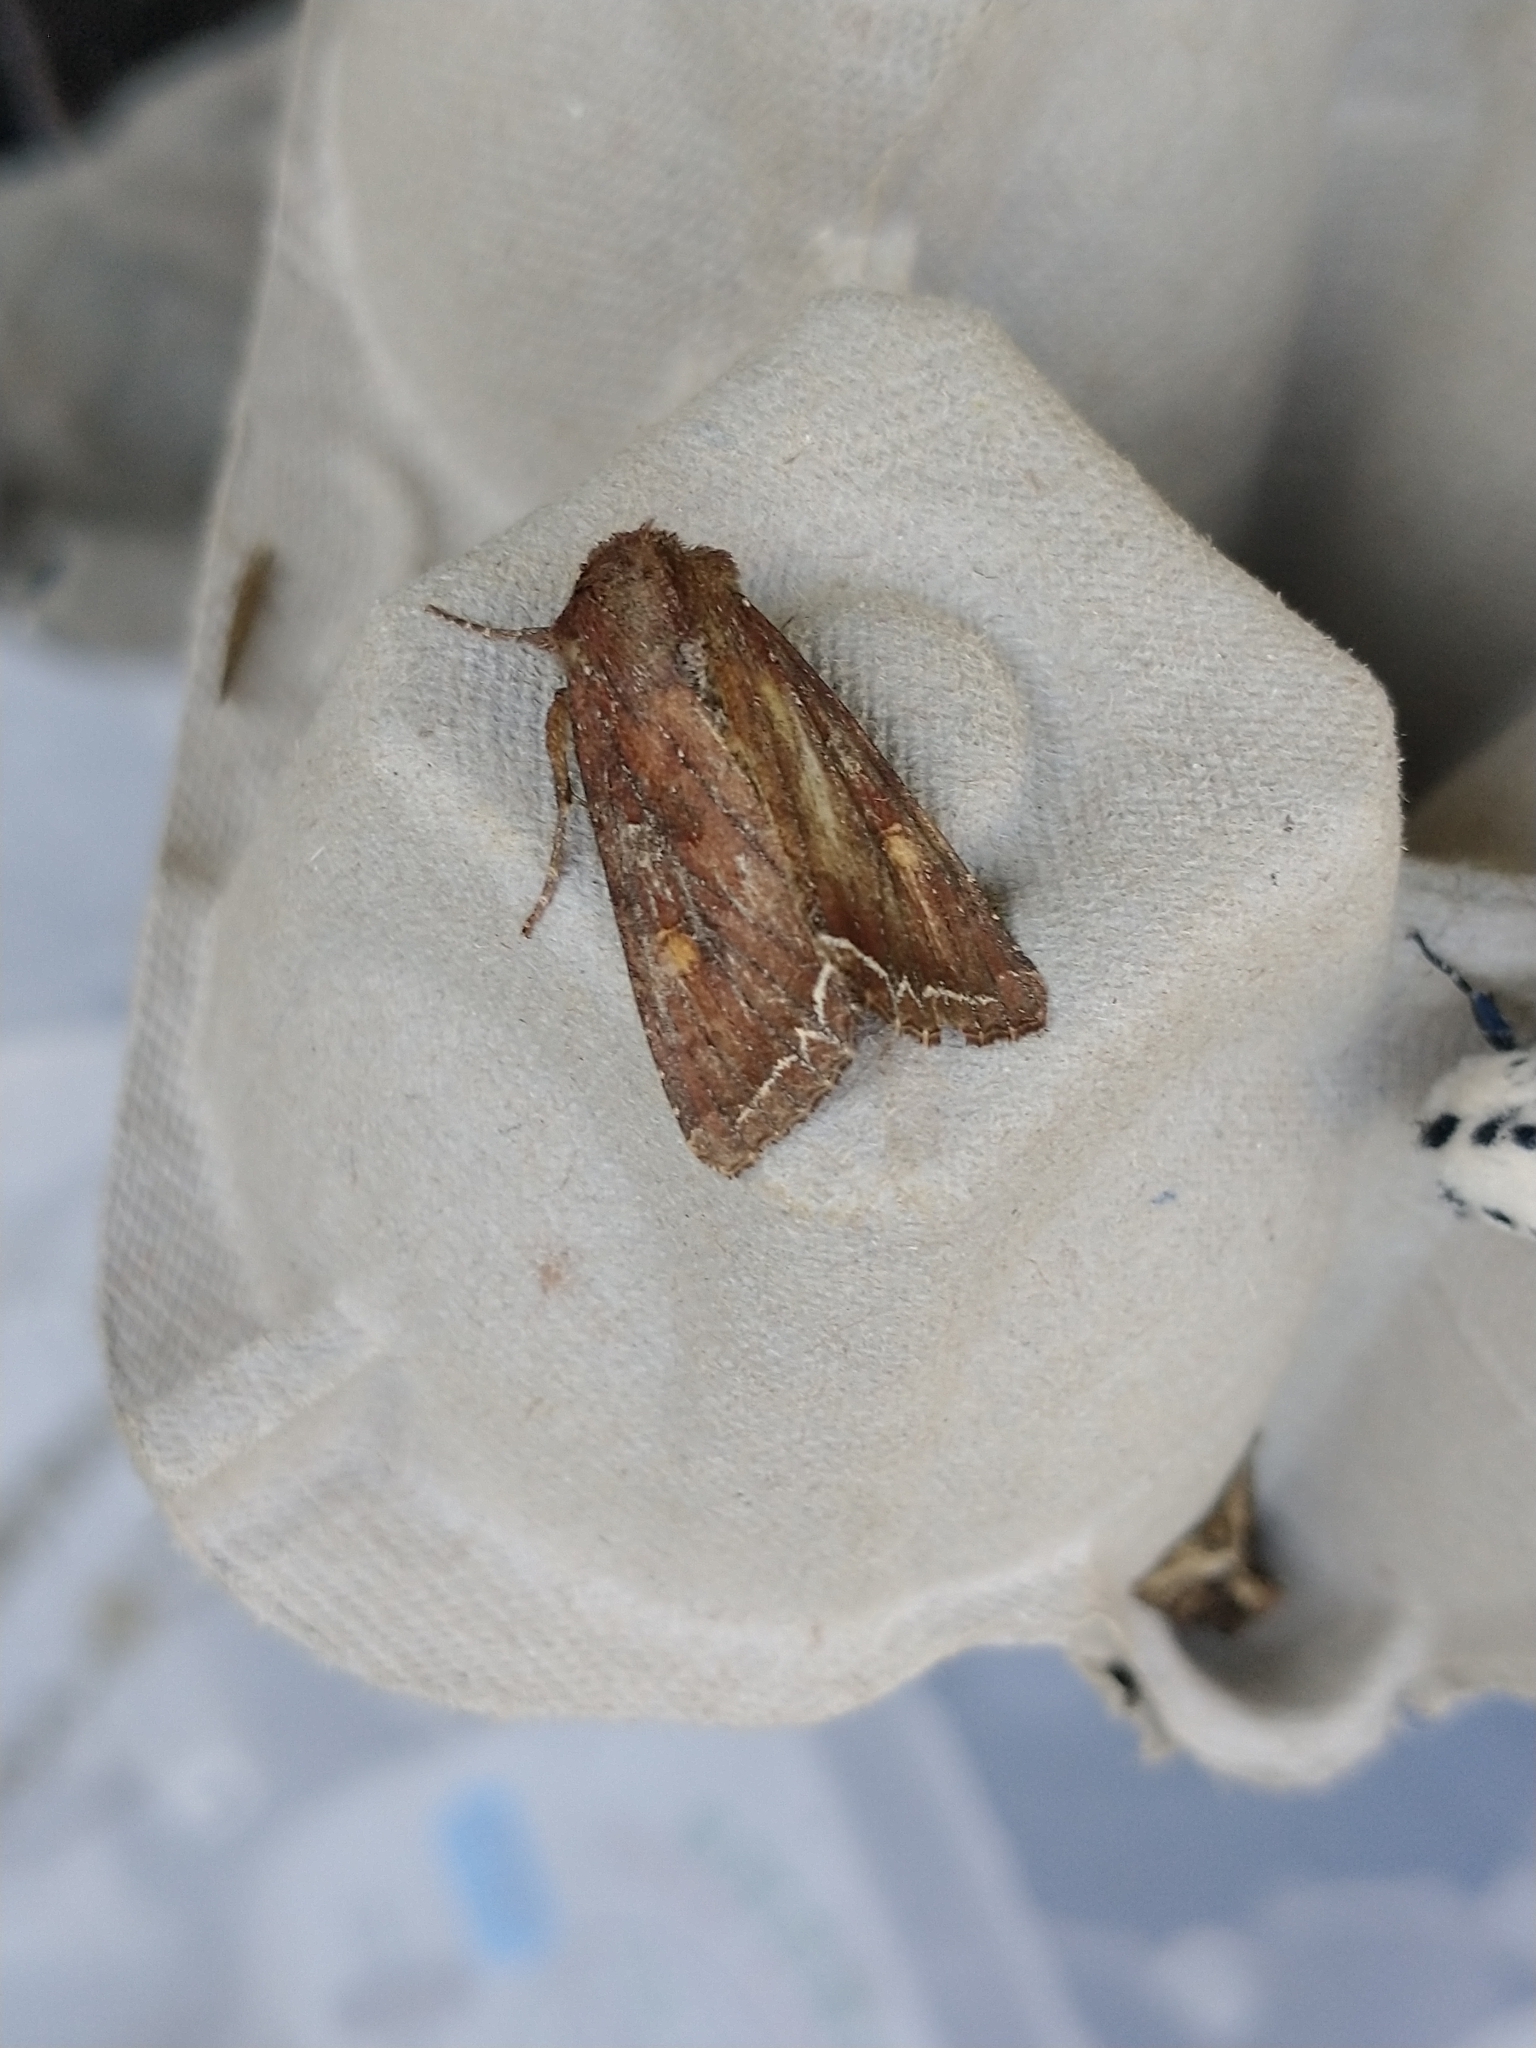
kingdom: Animalia
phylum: Arthropoda
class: Insecta
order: Lepidoptera
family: Noctuidae
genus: Lacanobia
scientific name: Lacanobia oleracea
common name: Bright-line brown-eye
